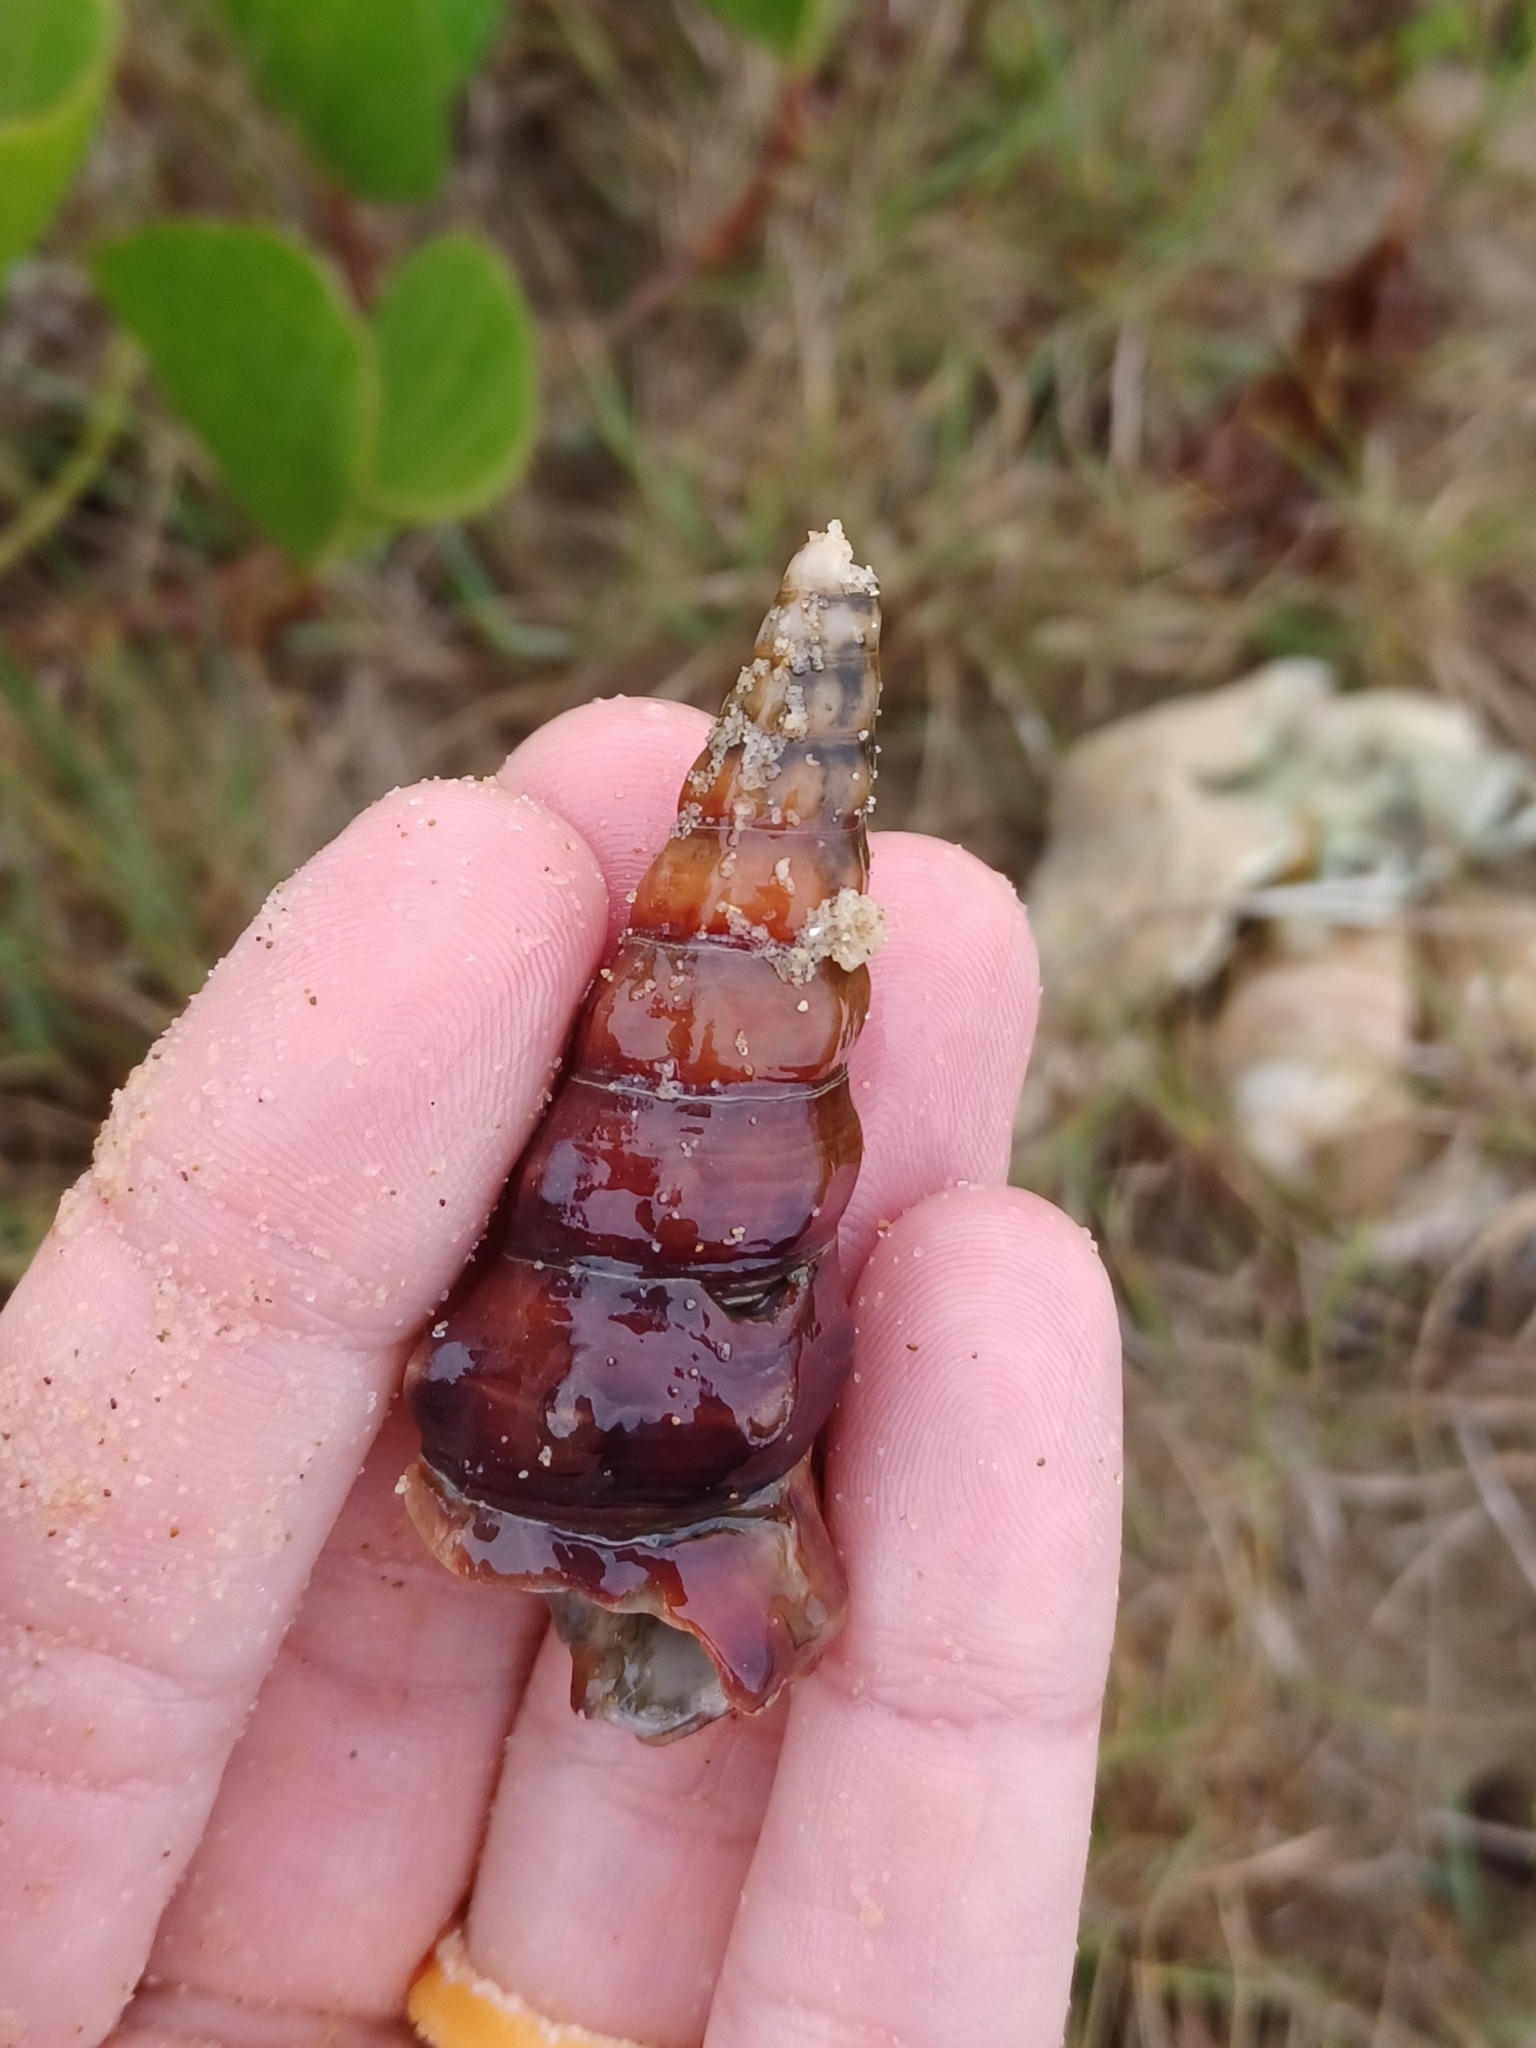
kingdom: Animalia
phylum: Mollusca
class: Gastropoda
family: Batillariidae
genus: Pyrazus
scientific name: Pyrazus ebeninus
